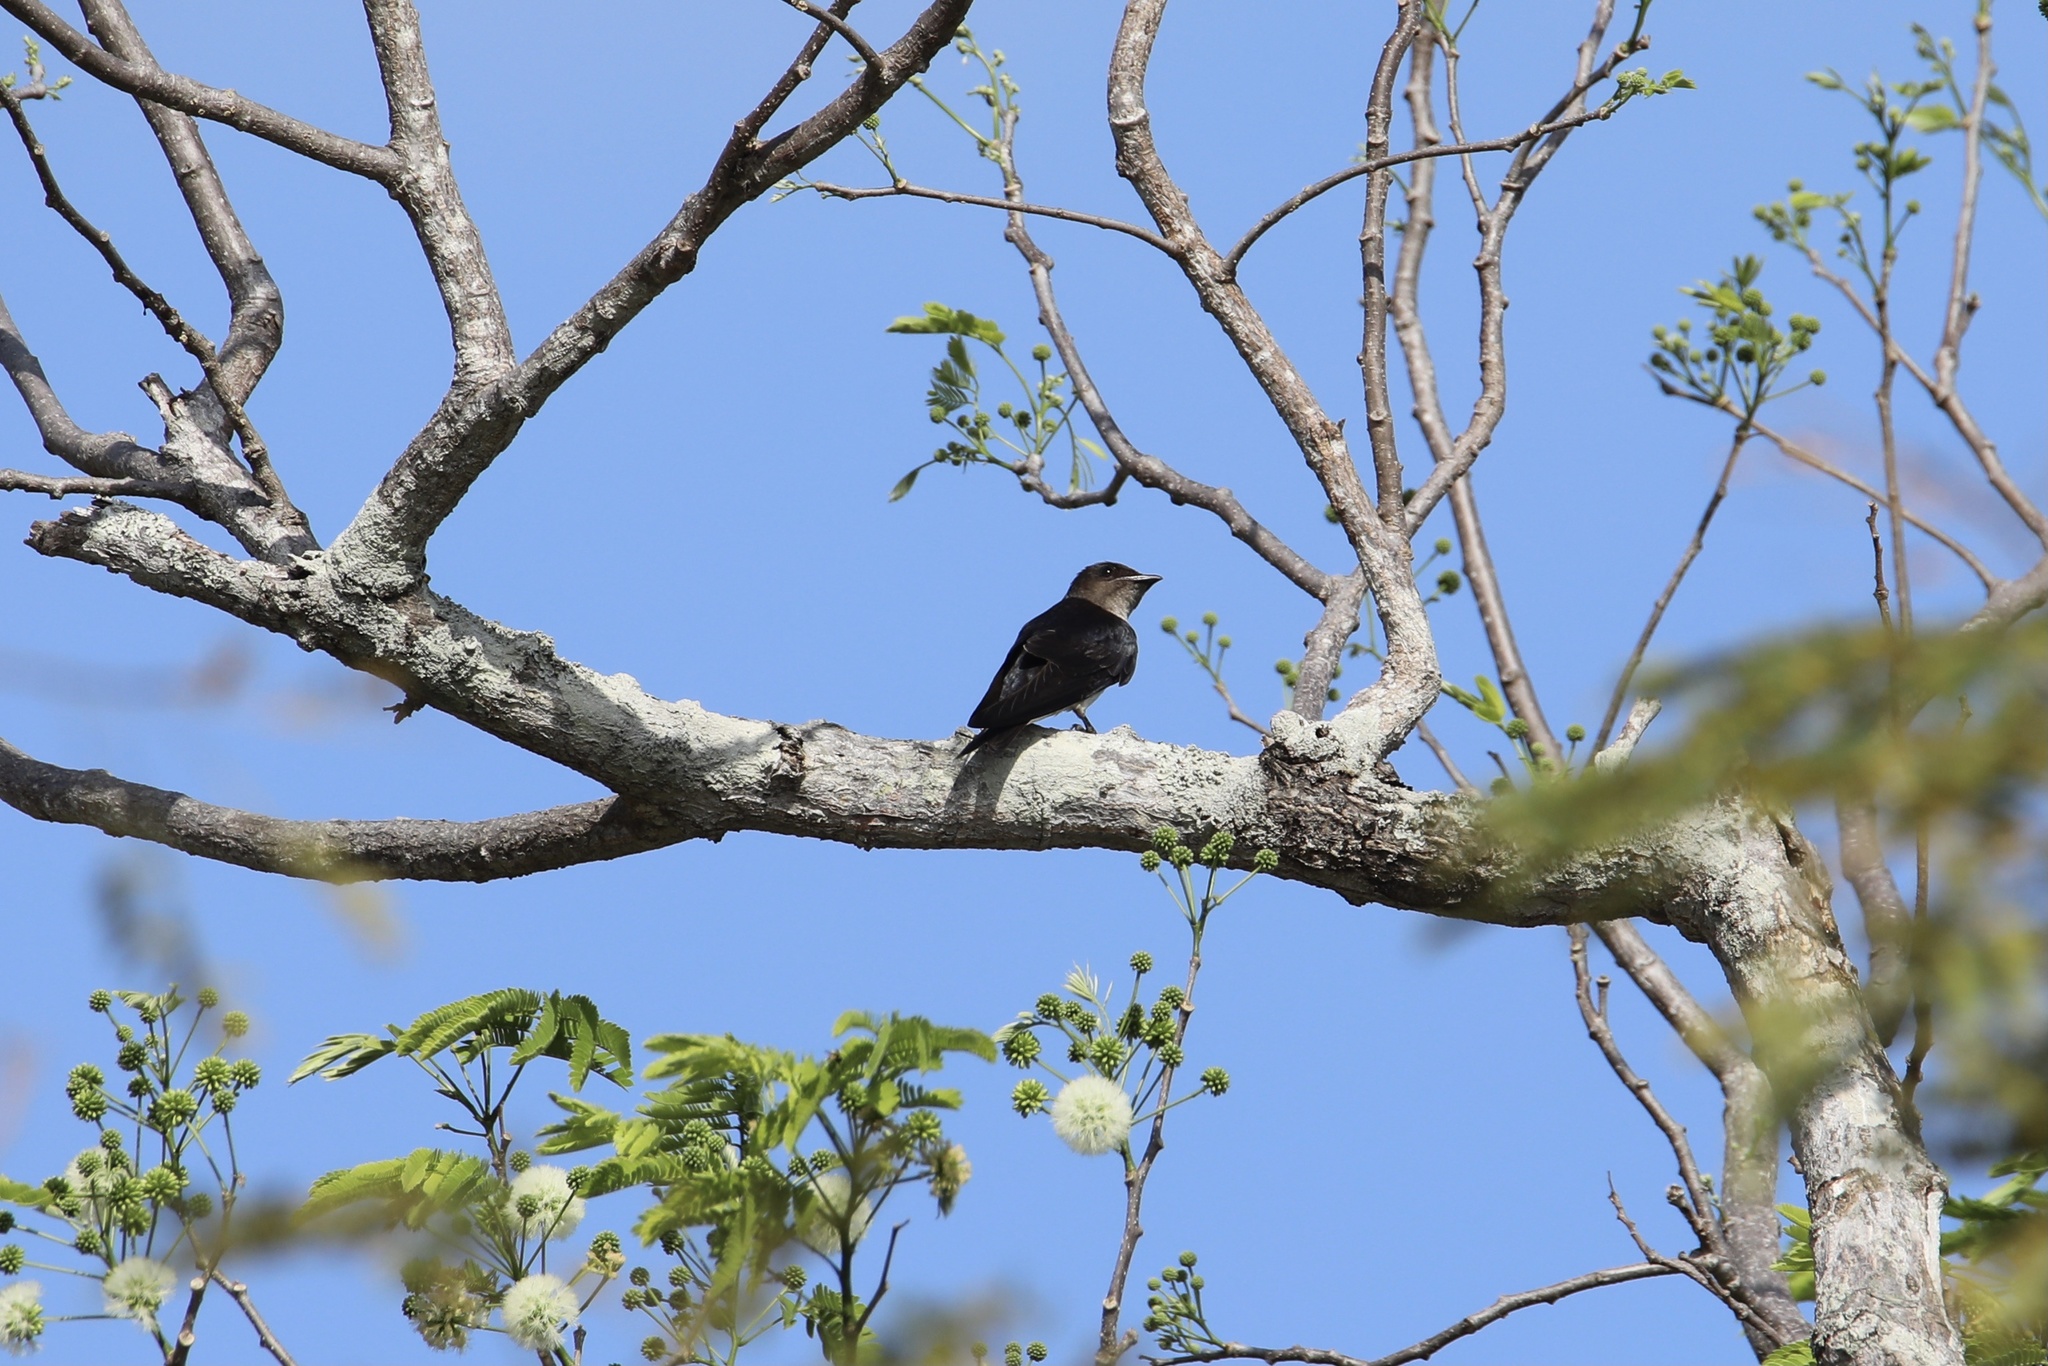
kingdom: Animalia
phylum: Chordata
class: Aves
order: Passeriformes
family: Hirundinidae
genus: Progne
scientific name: Progne chalybea
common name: Grey-breasted martin
